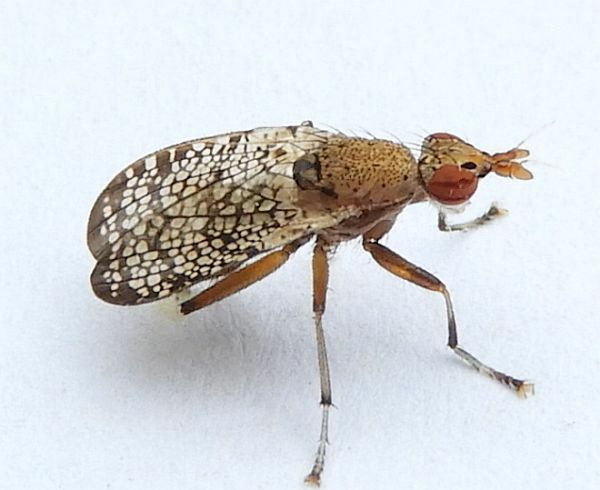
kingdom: Animalia
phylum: Arthropoda
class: Insecta
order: Diptera
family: Sciomyzidae
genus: Euthycera
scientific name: Euthycera flavescens
